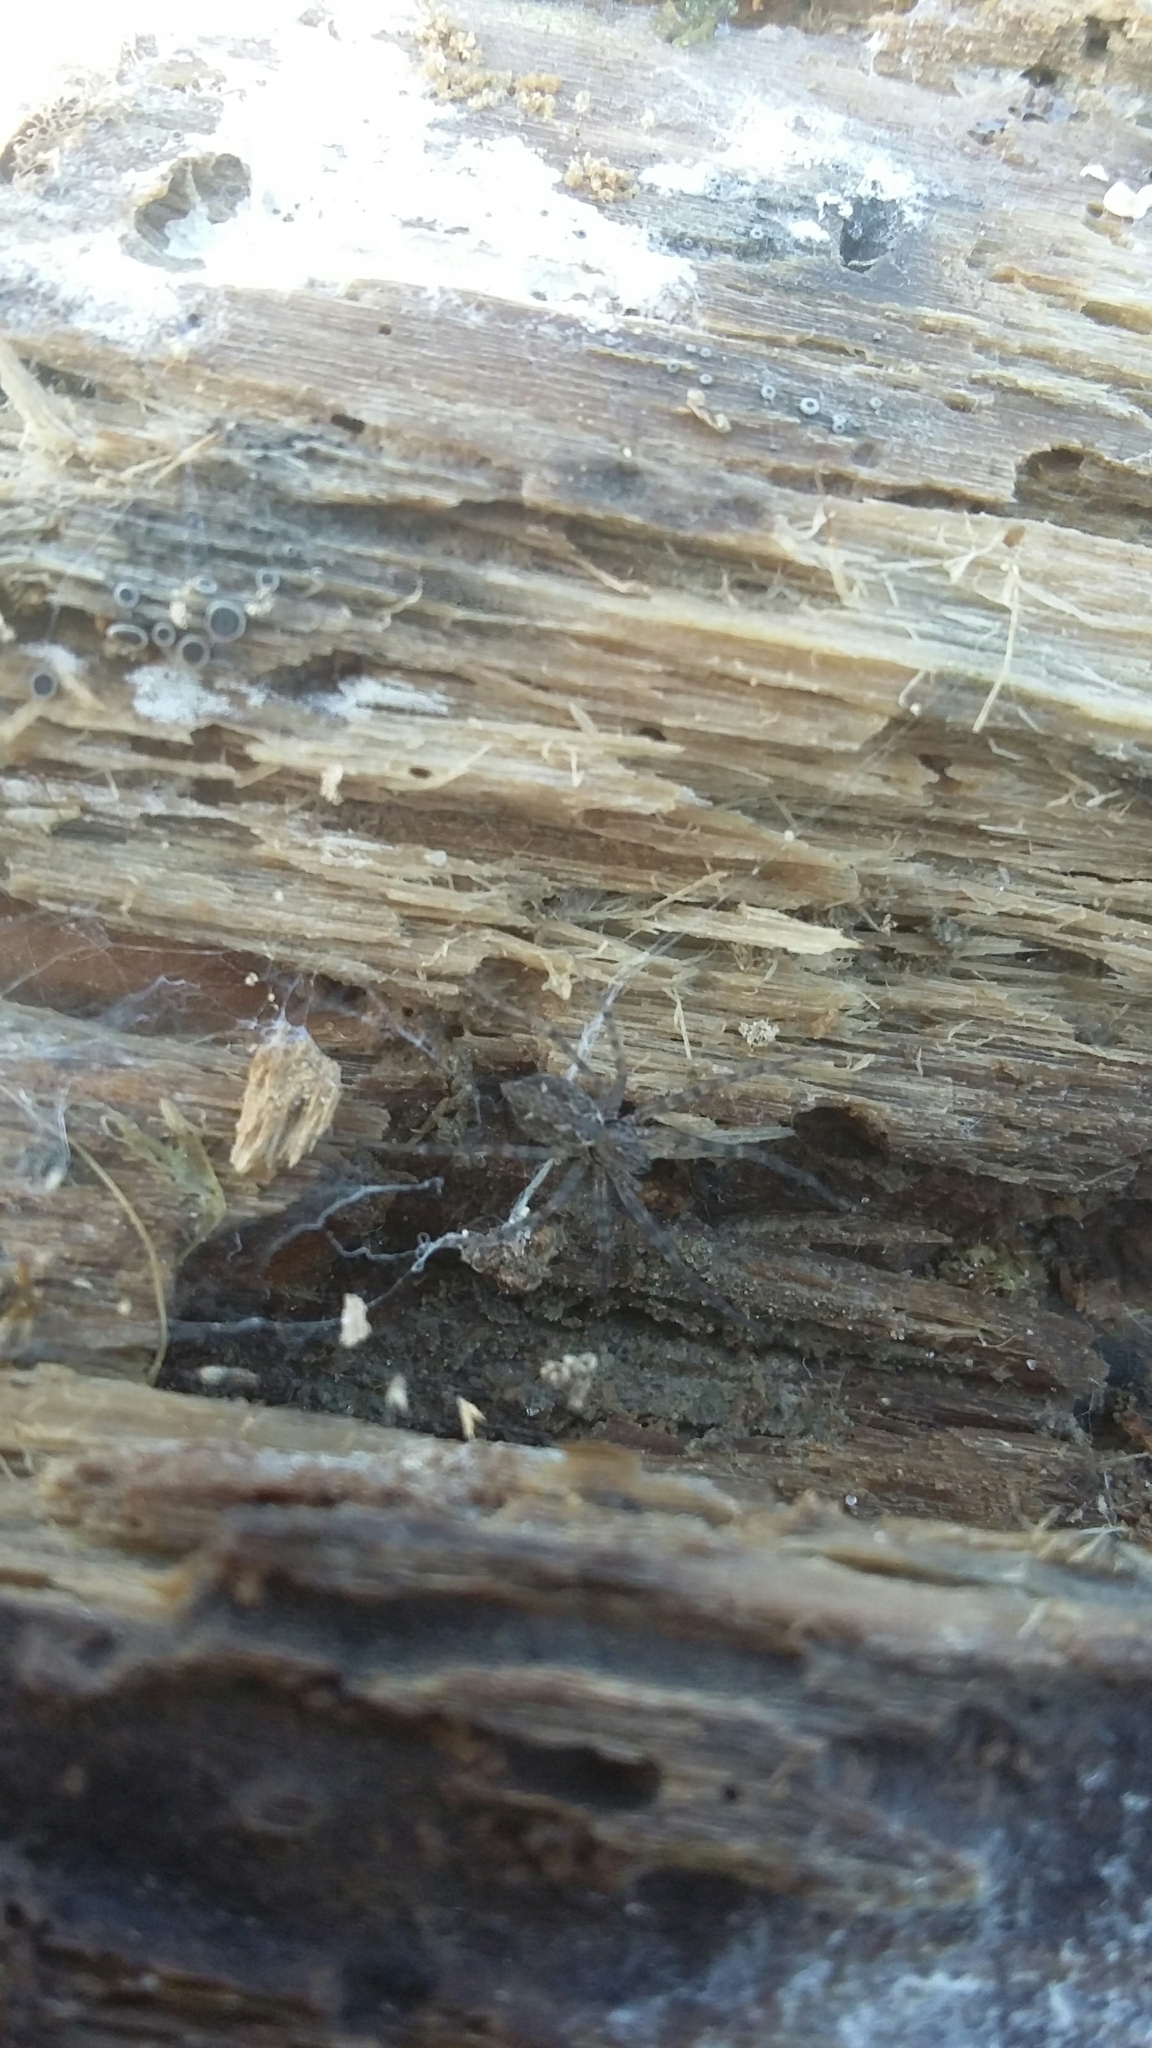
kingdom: Animalia
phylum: Arthropoda
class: Arachnida
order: Araneae
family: Stiphidiidae
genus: Stiphidion
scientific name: Stiphidion facetum
